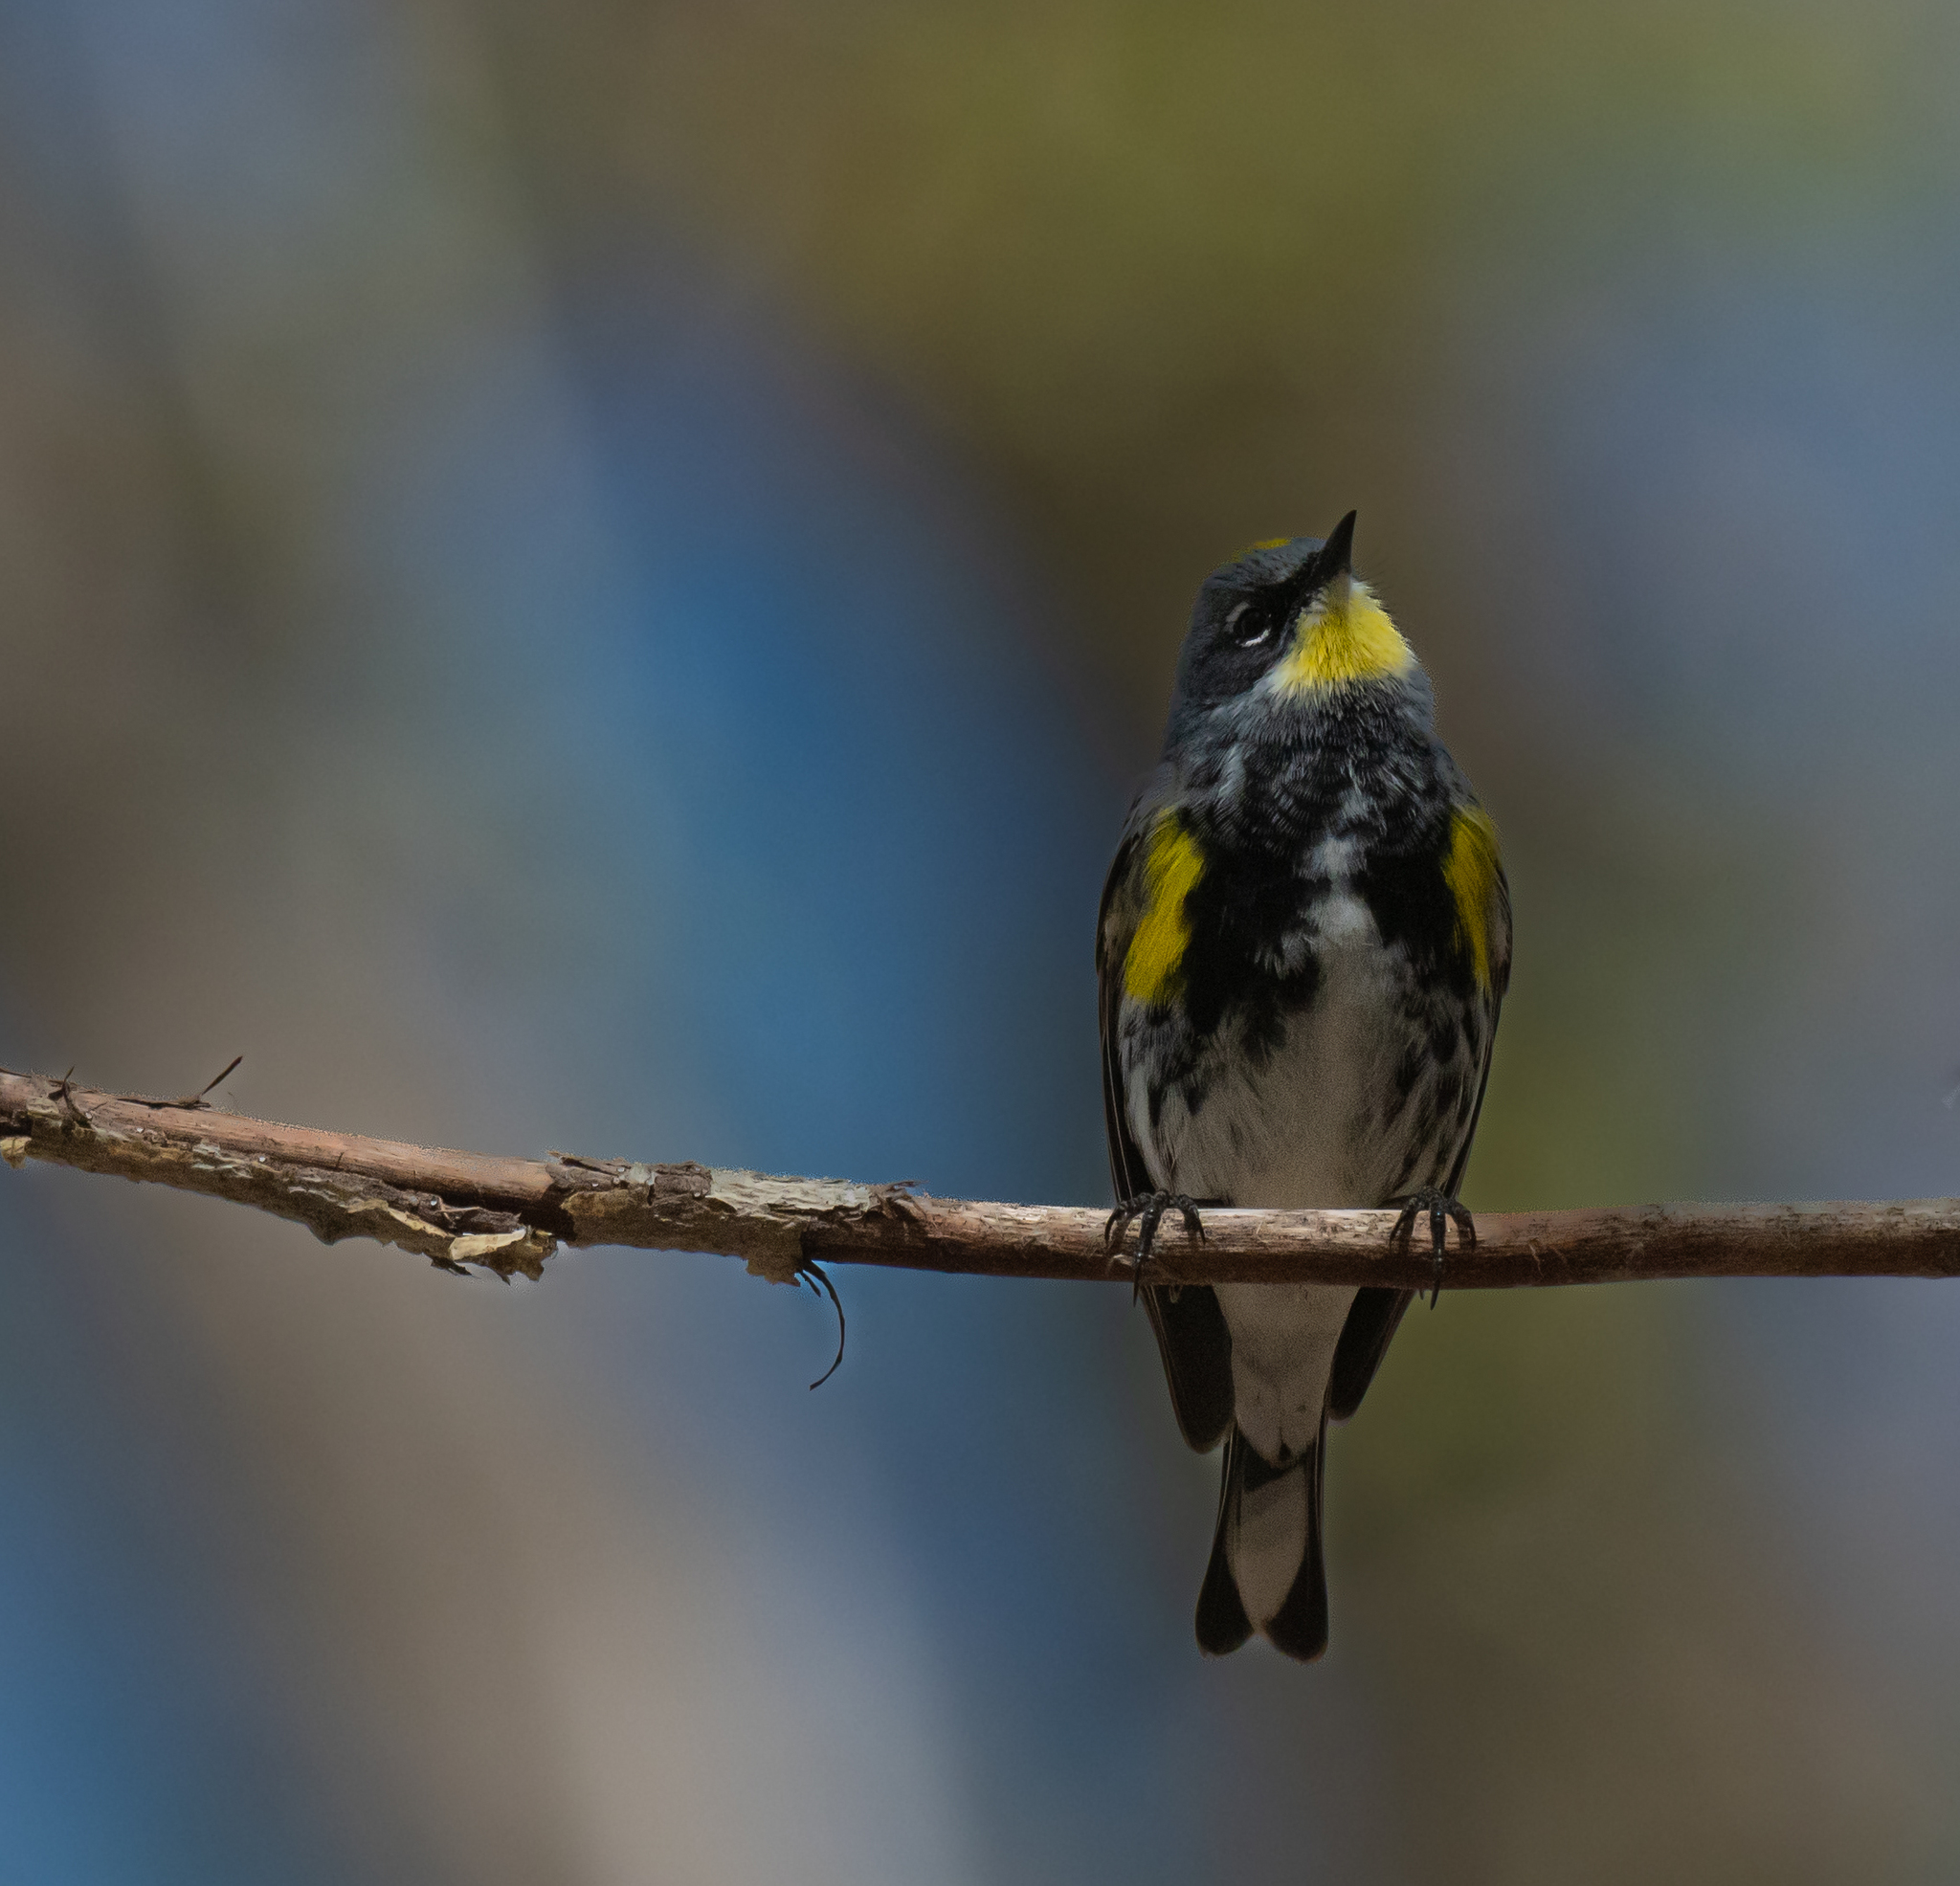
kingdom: Animalia
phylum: Chordata
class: Aves
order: Passeriformes
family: Parulidae
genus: Setophaga
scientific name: Setophaga coronata
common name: Myrtle warbler
